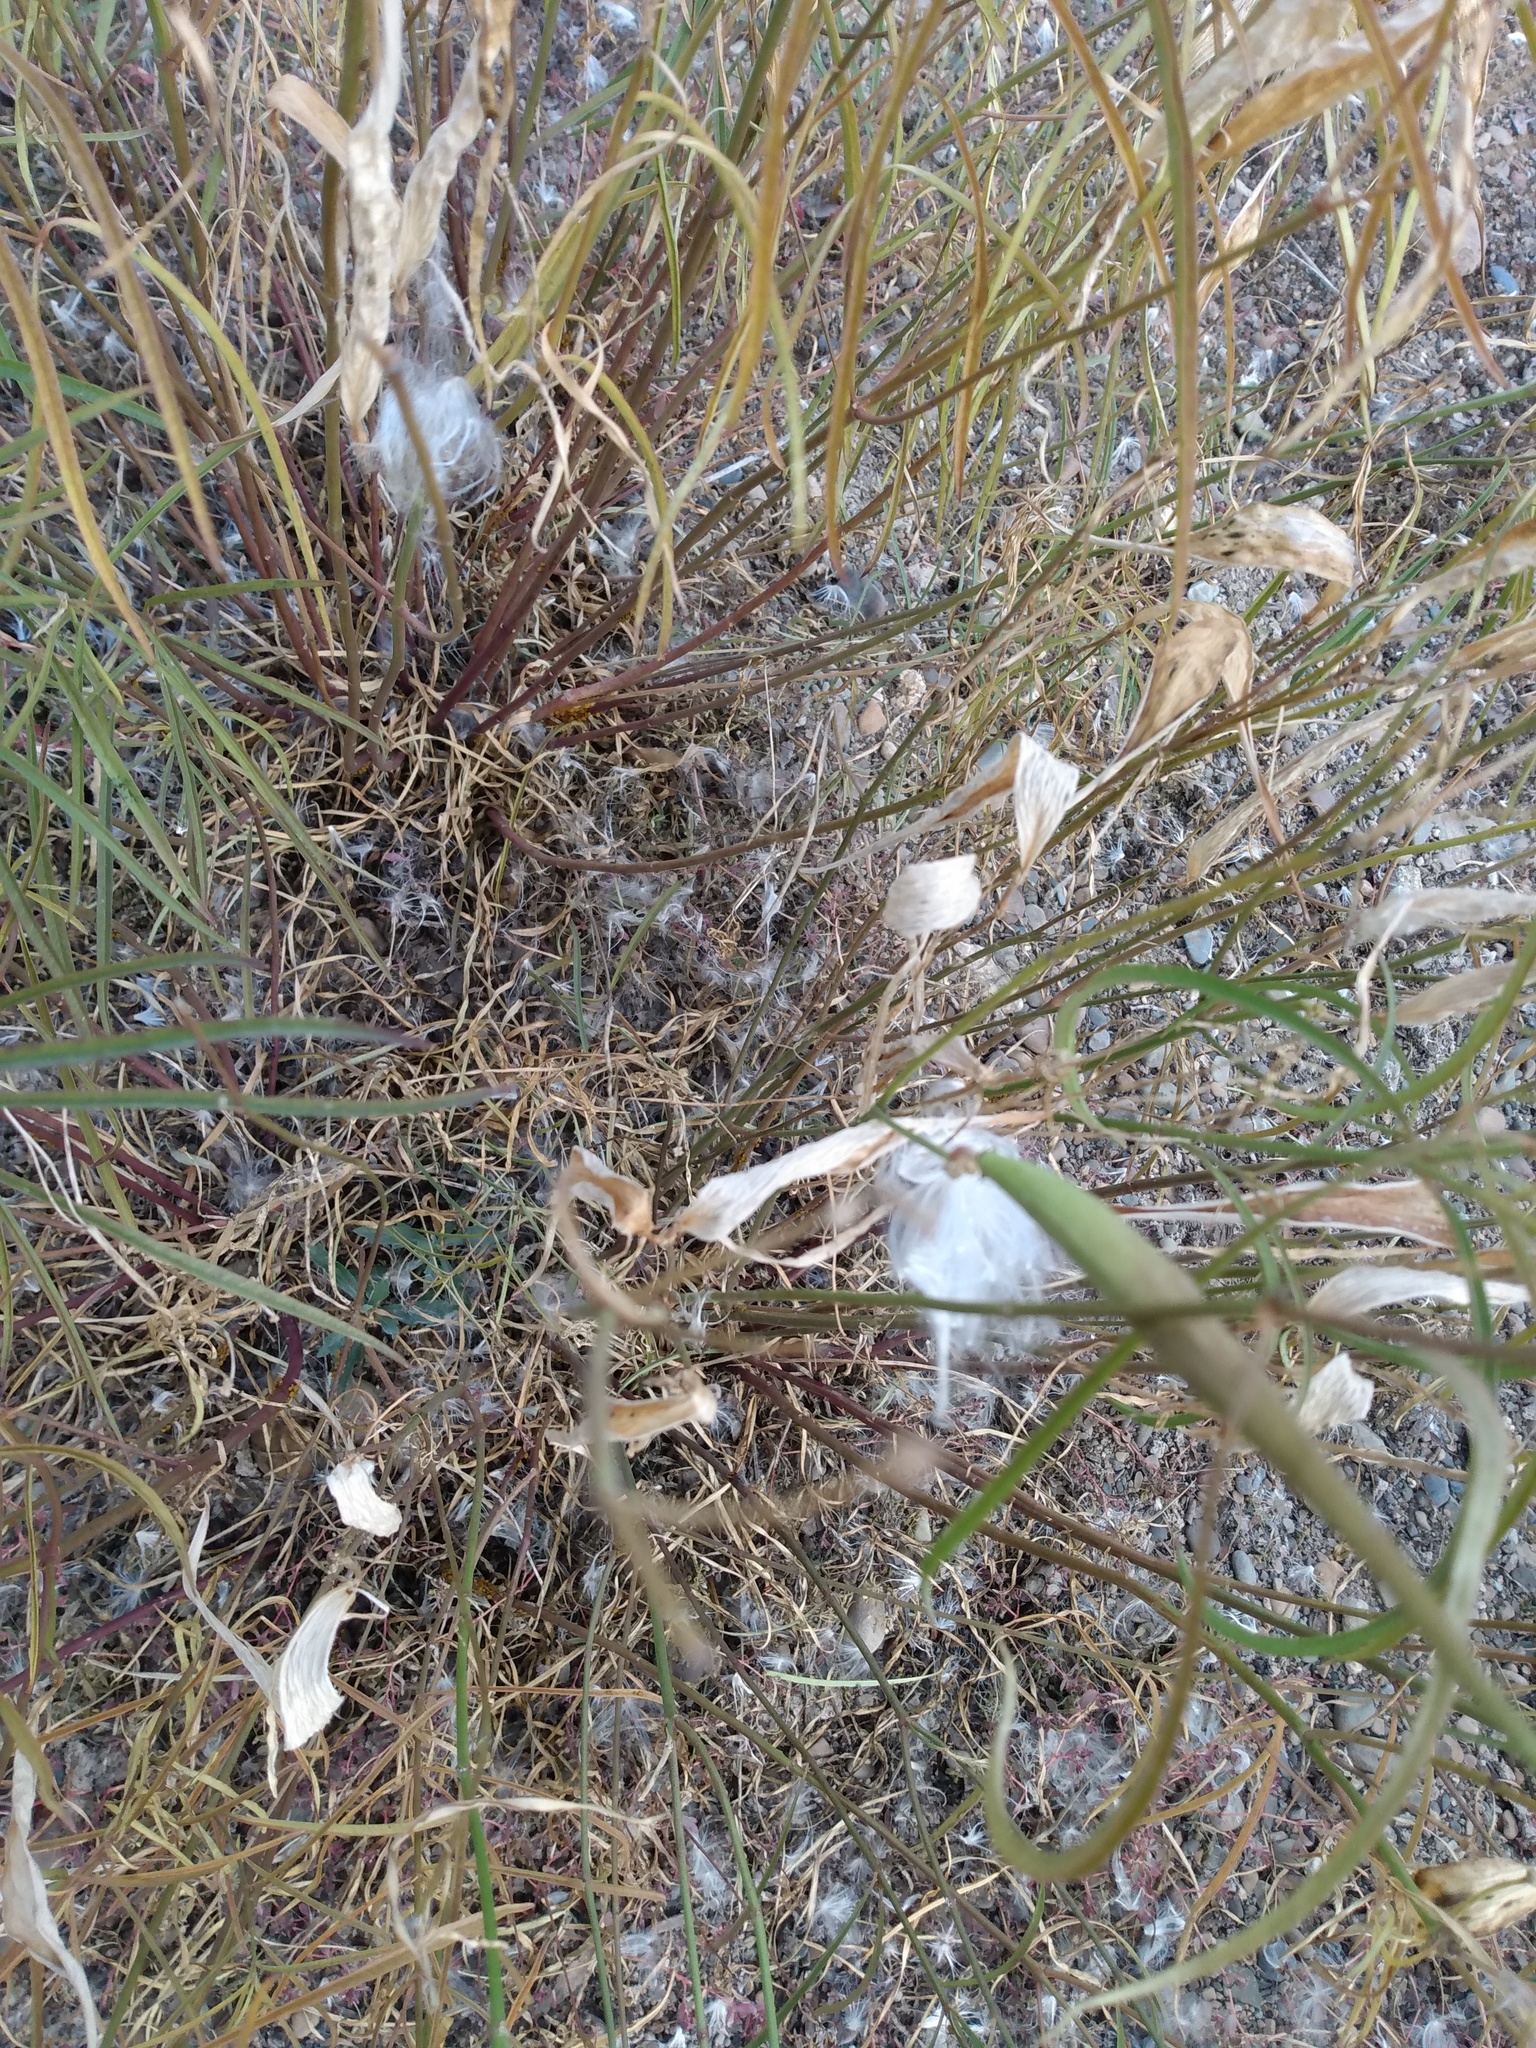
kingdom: Plantae
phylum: Tracheophyta
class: Magnoliopsida
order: Gentianales
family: Apocynaceae
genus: Asclepias
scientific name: Asclepias fascicularis
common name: Mexican milkweed
